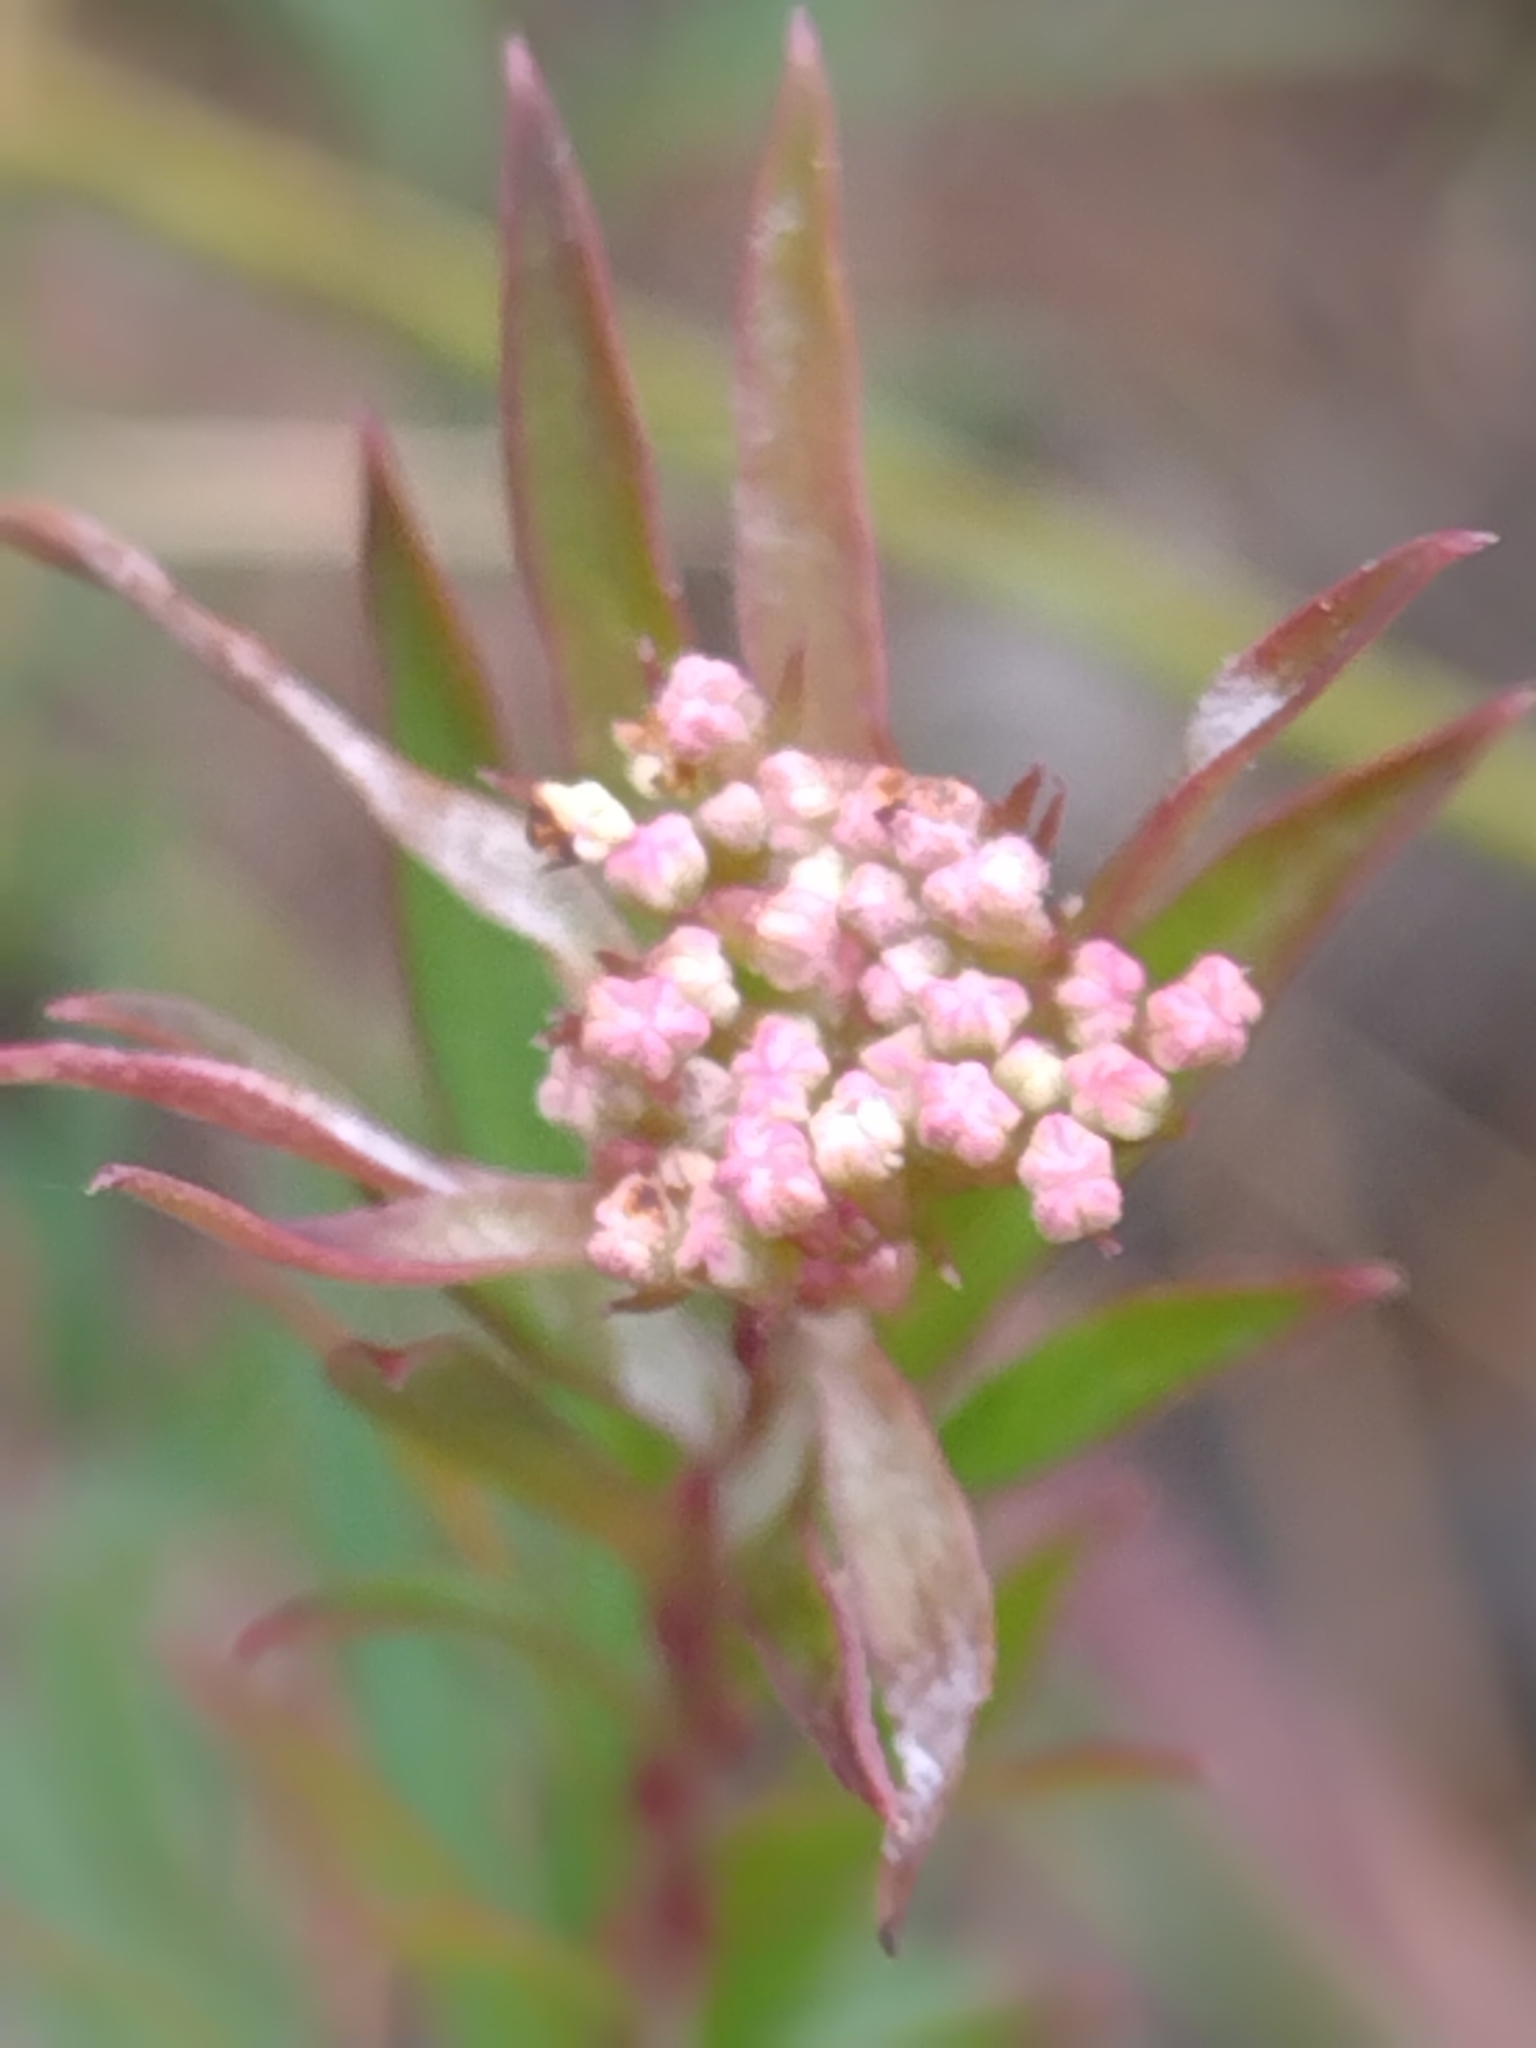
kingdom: Plantae
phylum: Tracheophyta
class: Magnoliopsida
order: Apiales
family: Apiaceae
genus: Platysace
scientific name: Platysace lanceolata
